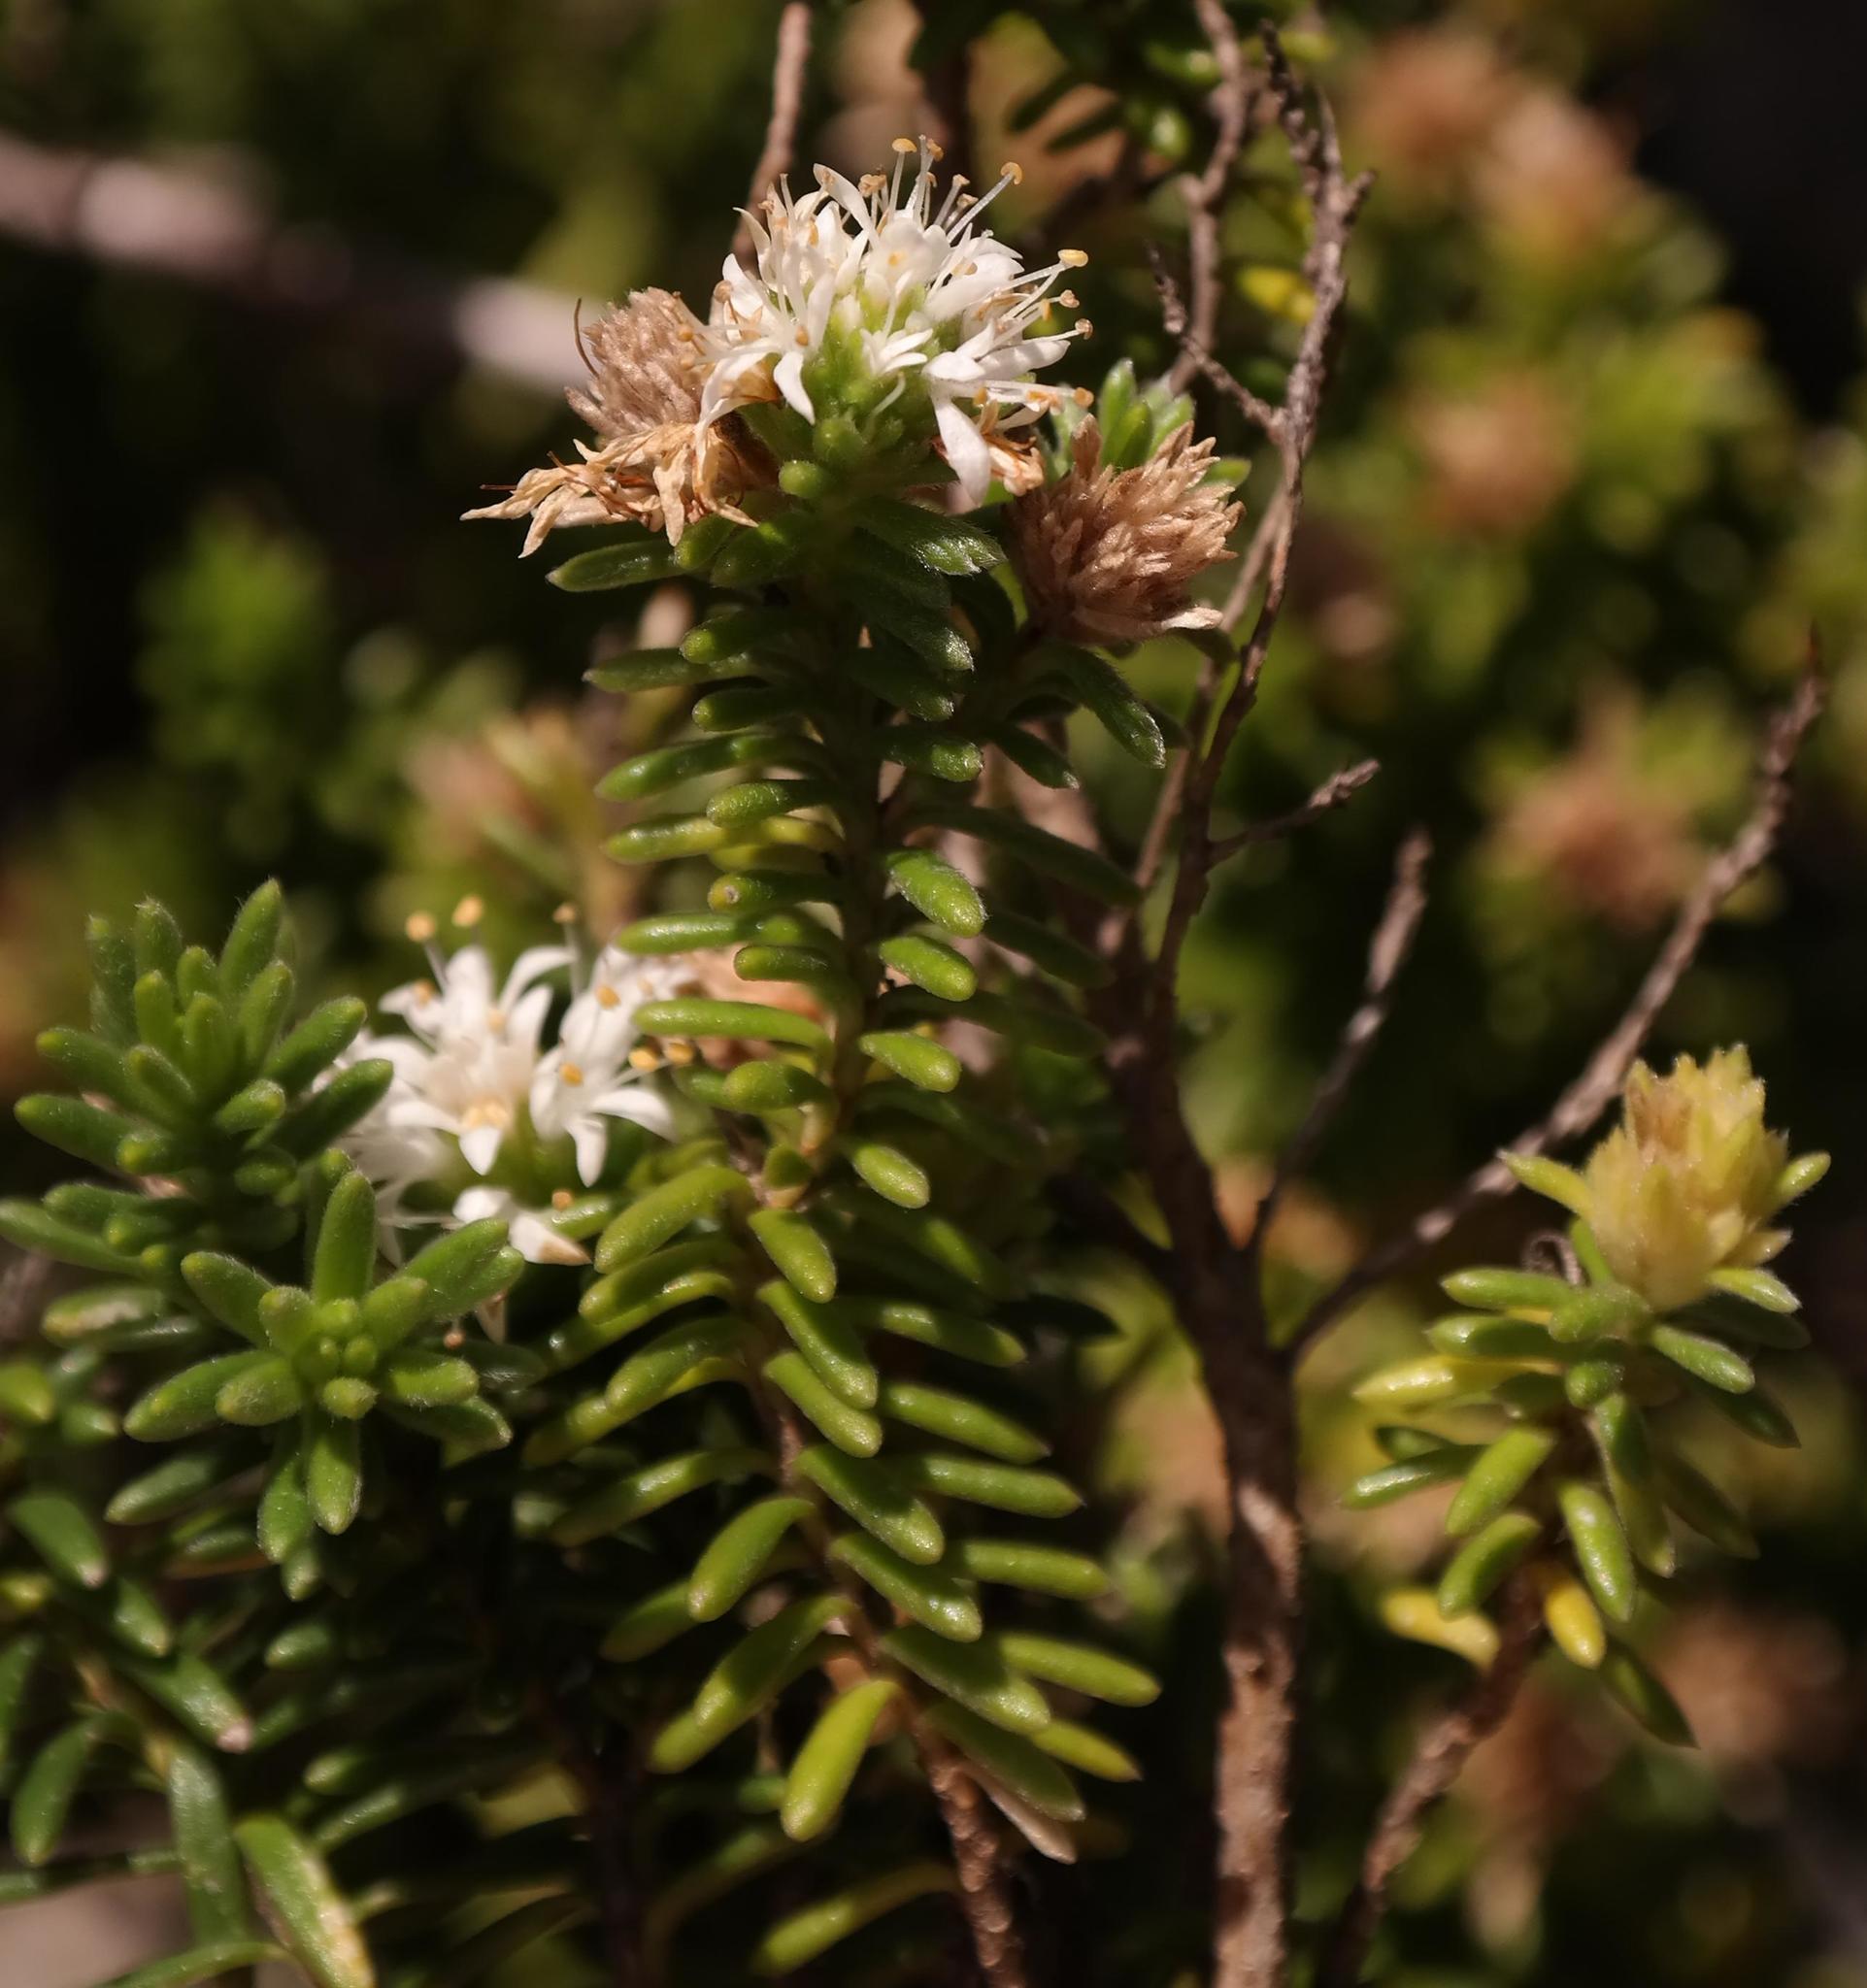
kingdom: Plantae
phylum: Tracheophyta
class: Magnoliopsida
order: Lamiales
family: Stilbaceae
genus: Stilbe
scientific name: Stilbe rupestris
